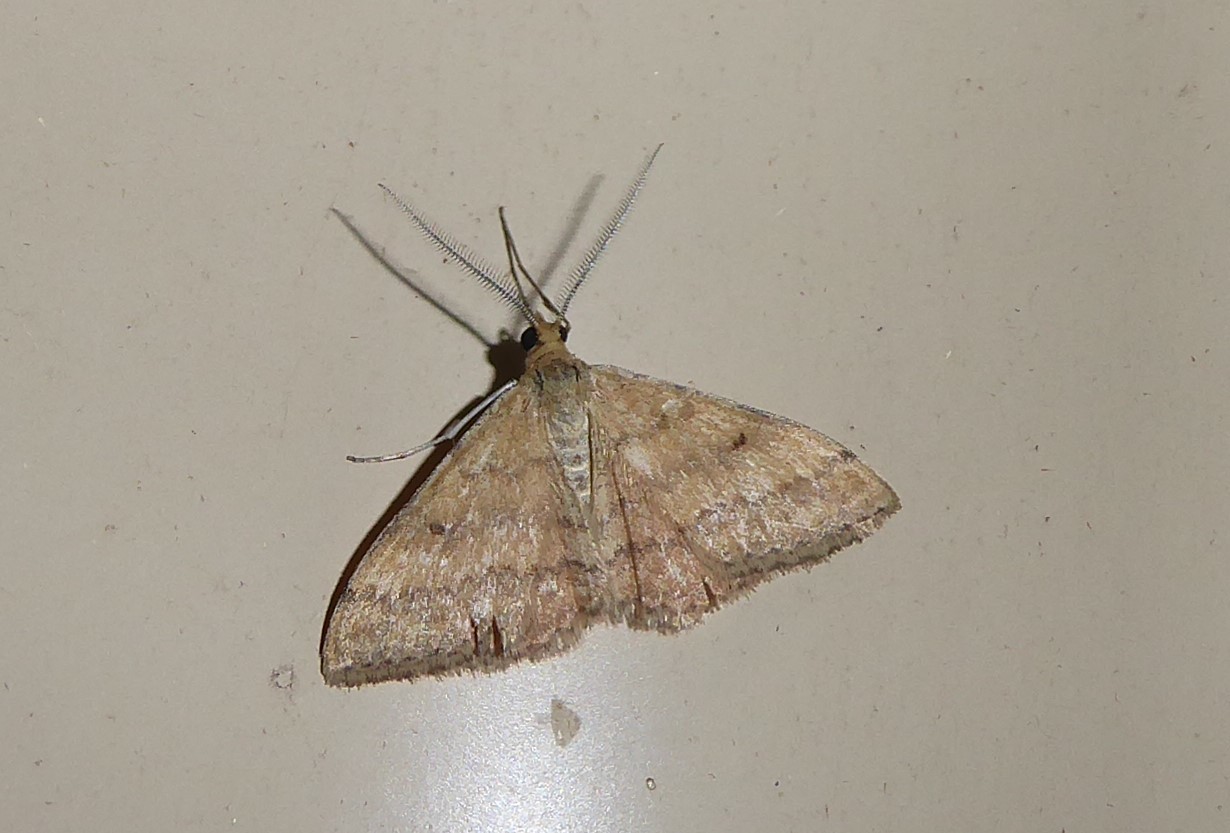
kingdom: Animalia
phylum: Arthropoda
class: Insecta
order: Lepidoptera
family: Geometridae
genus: Scopula
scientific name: Scopula rubraria
